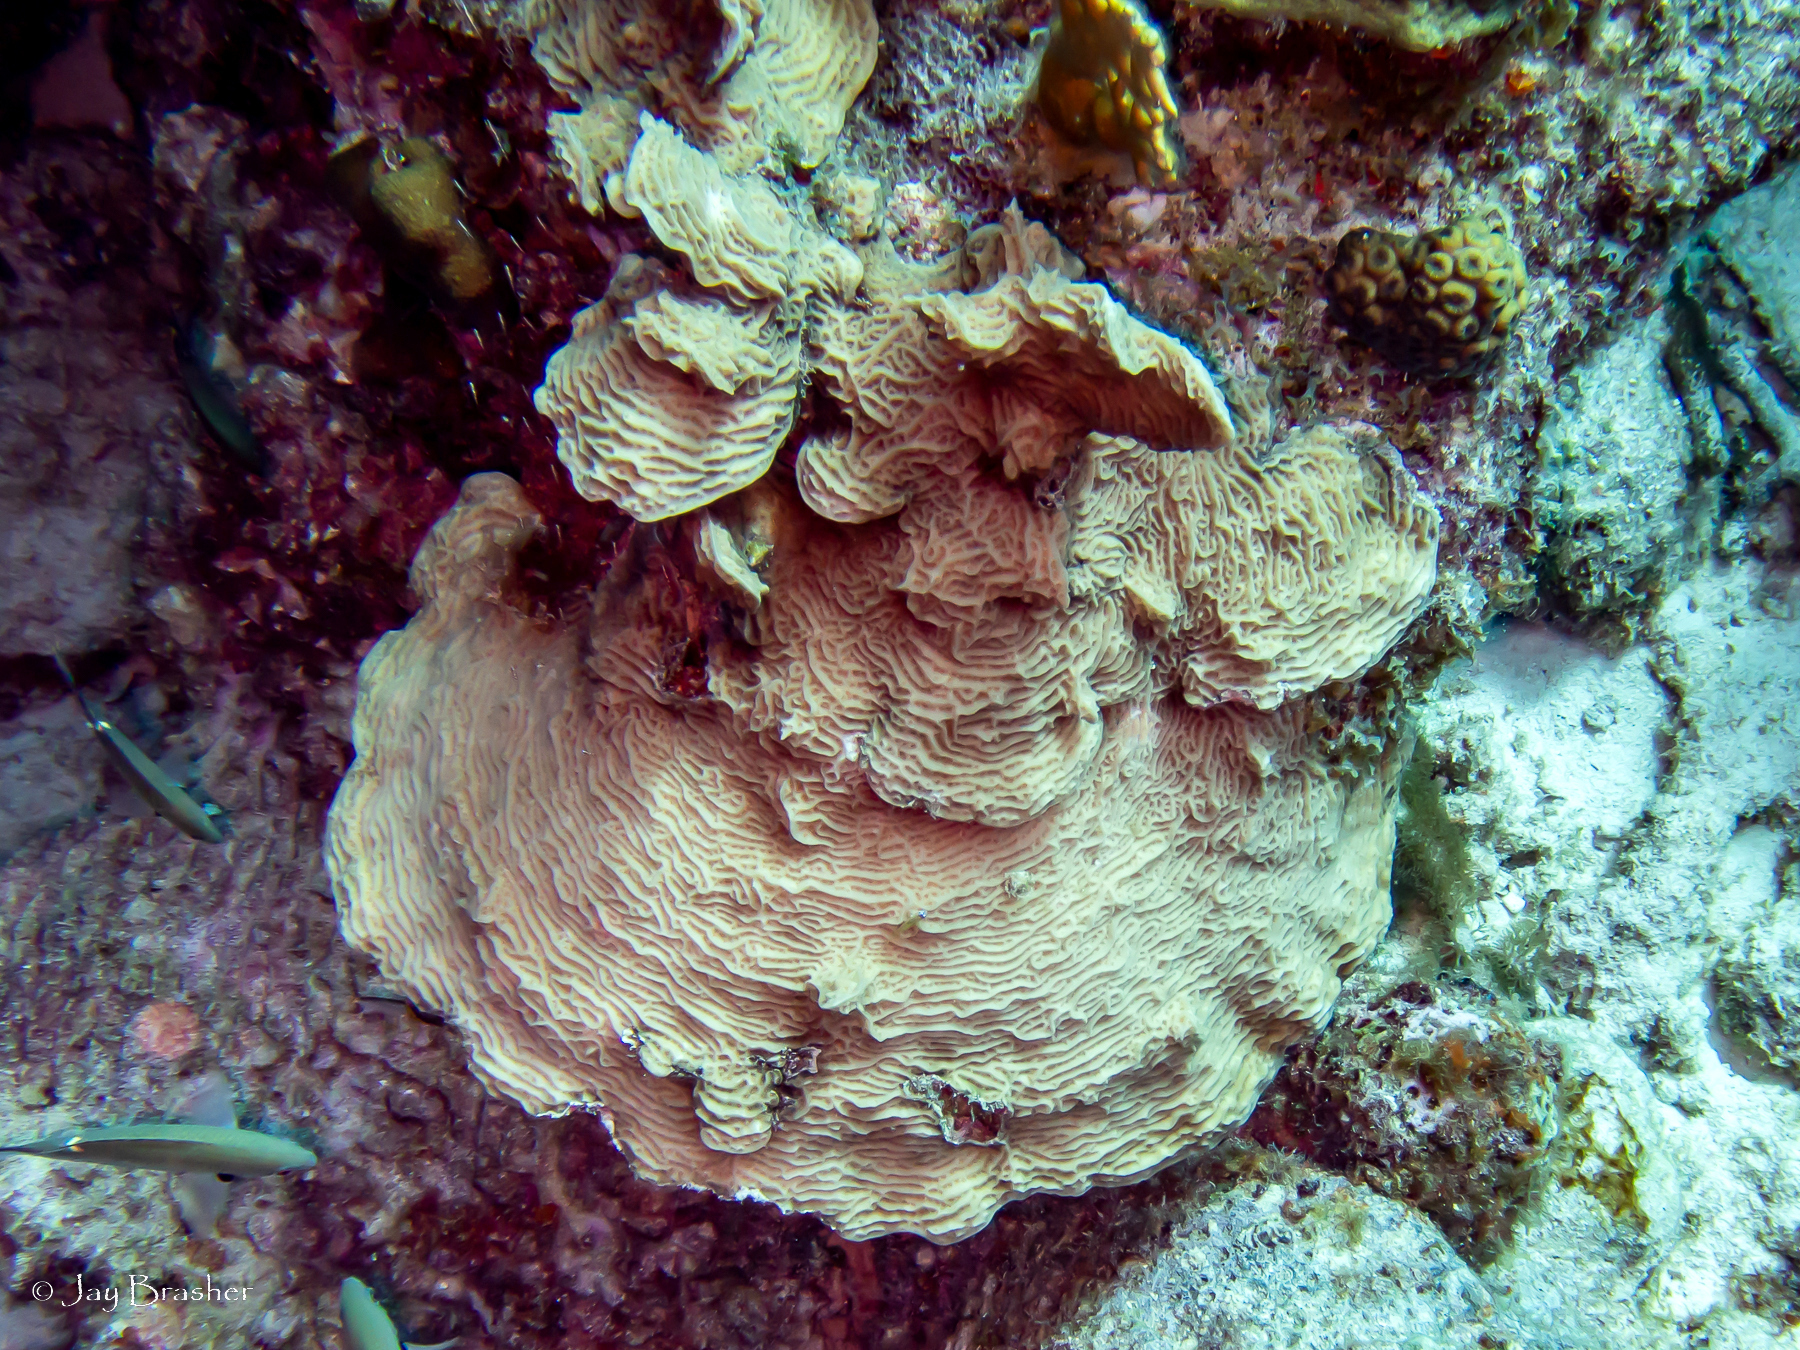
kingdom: Animalia
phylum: Cnidaria
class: Anthozoa
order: Scleractinia
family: Agariciidae
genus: Agaricia
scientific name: Agaricia agaricites
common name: Lettuce coral
